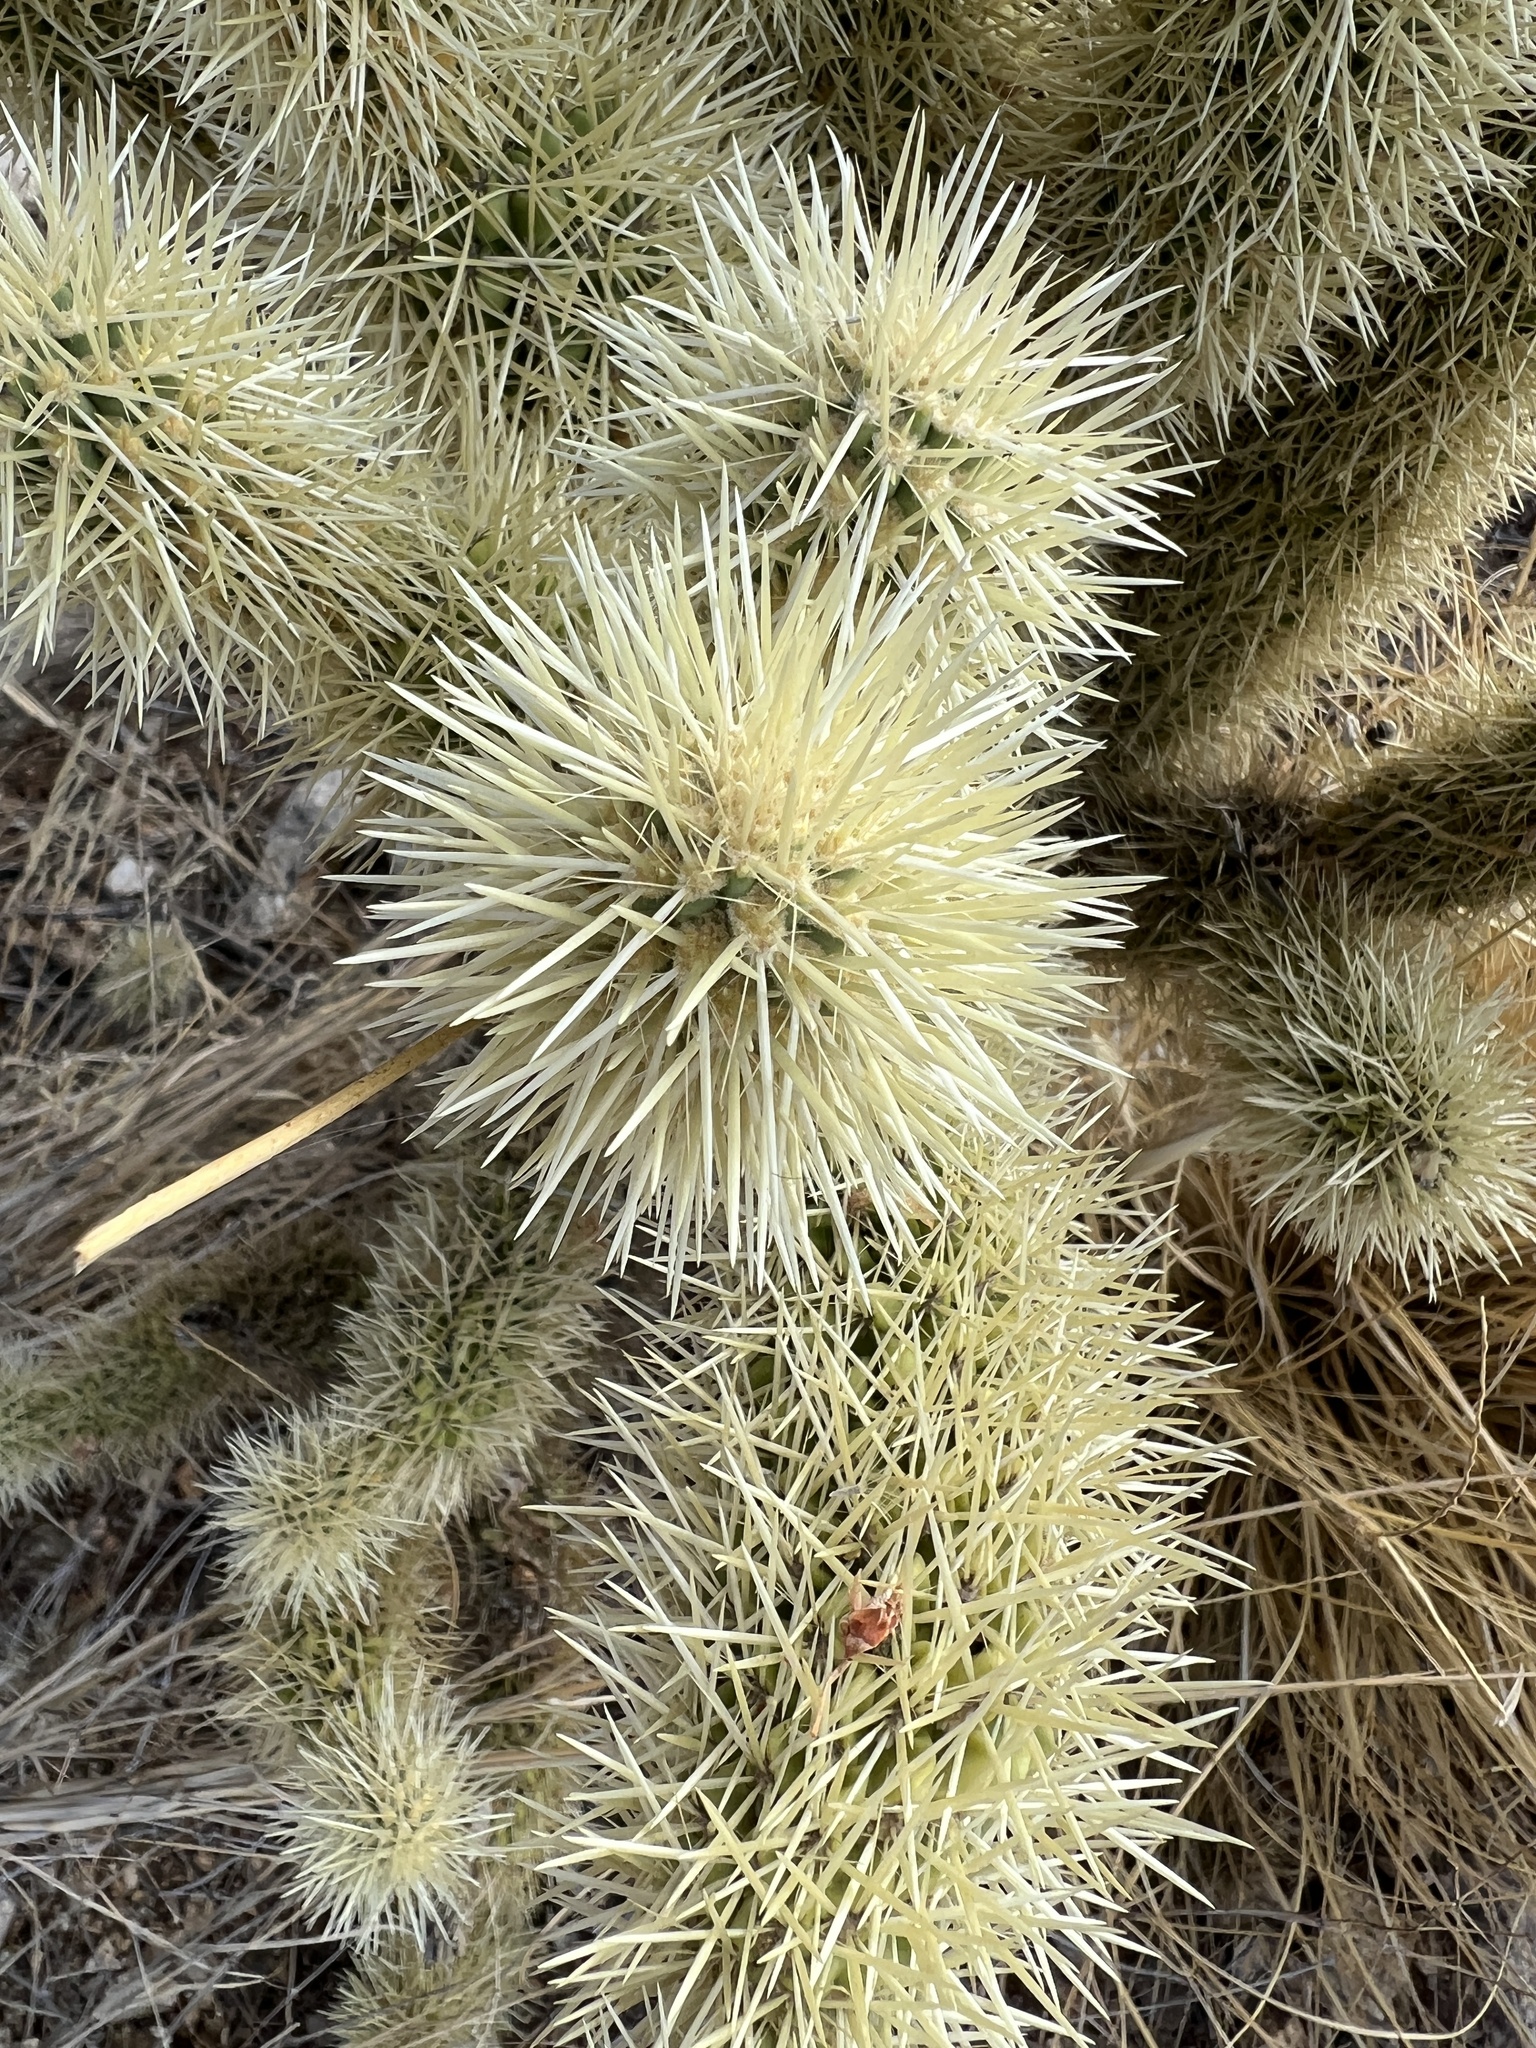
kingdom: Plantae
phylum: Tracheophyta
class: Magnoliopsida
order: Caryophyllales
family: Cactaceae
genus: Cylindropuntia
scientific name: Cylindropuntia fosbergii
